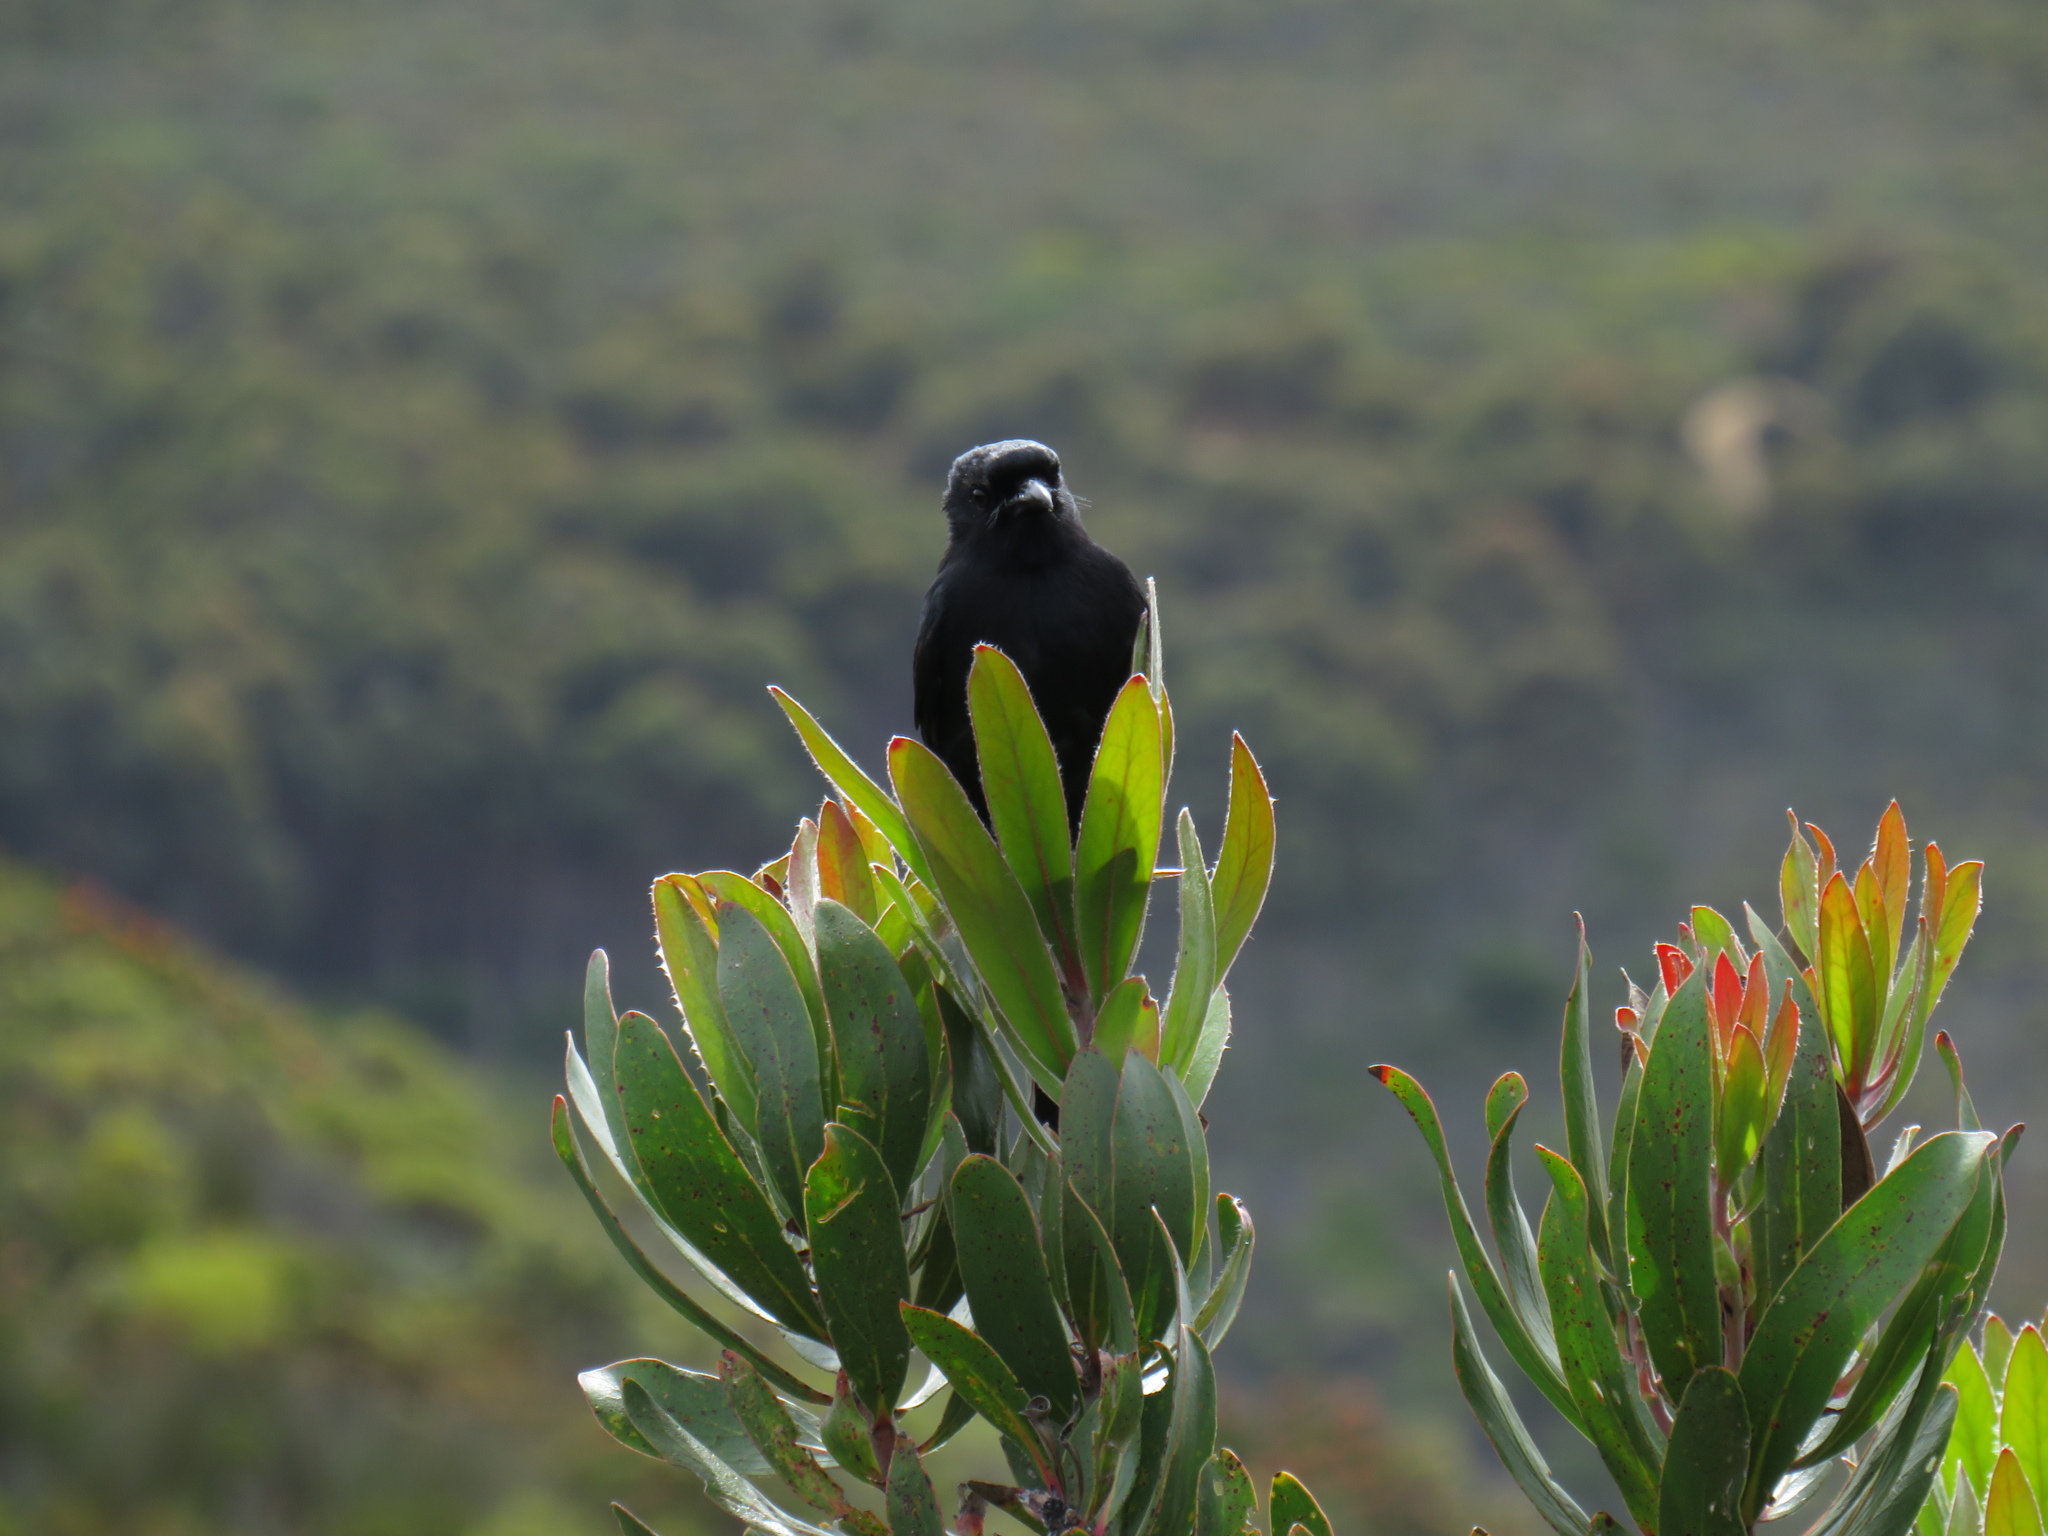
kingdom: Animalia
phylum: Chordata
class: Aves
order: Passeriformes
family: Dicruridae
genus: Dicrurus
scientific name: Dicrurus adsimilis
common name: Fork-tailed drongo
